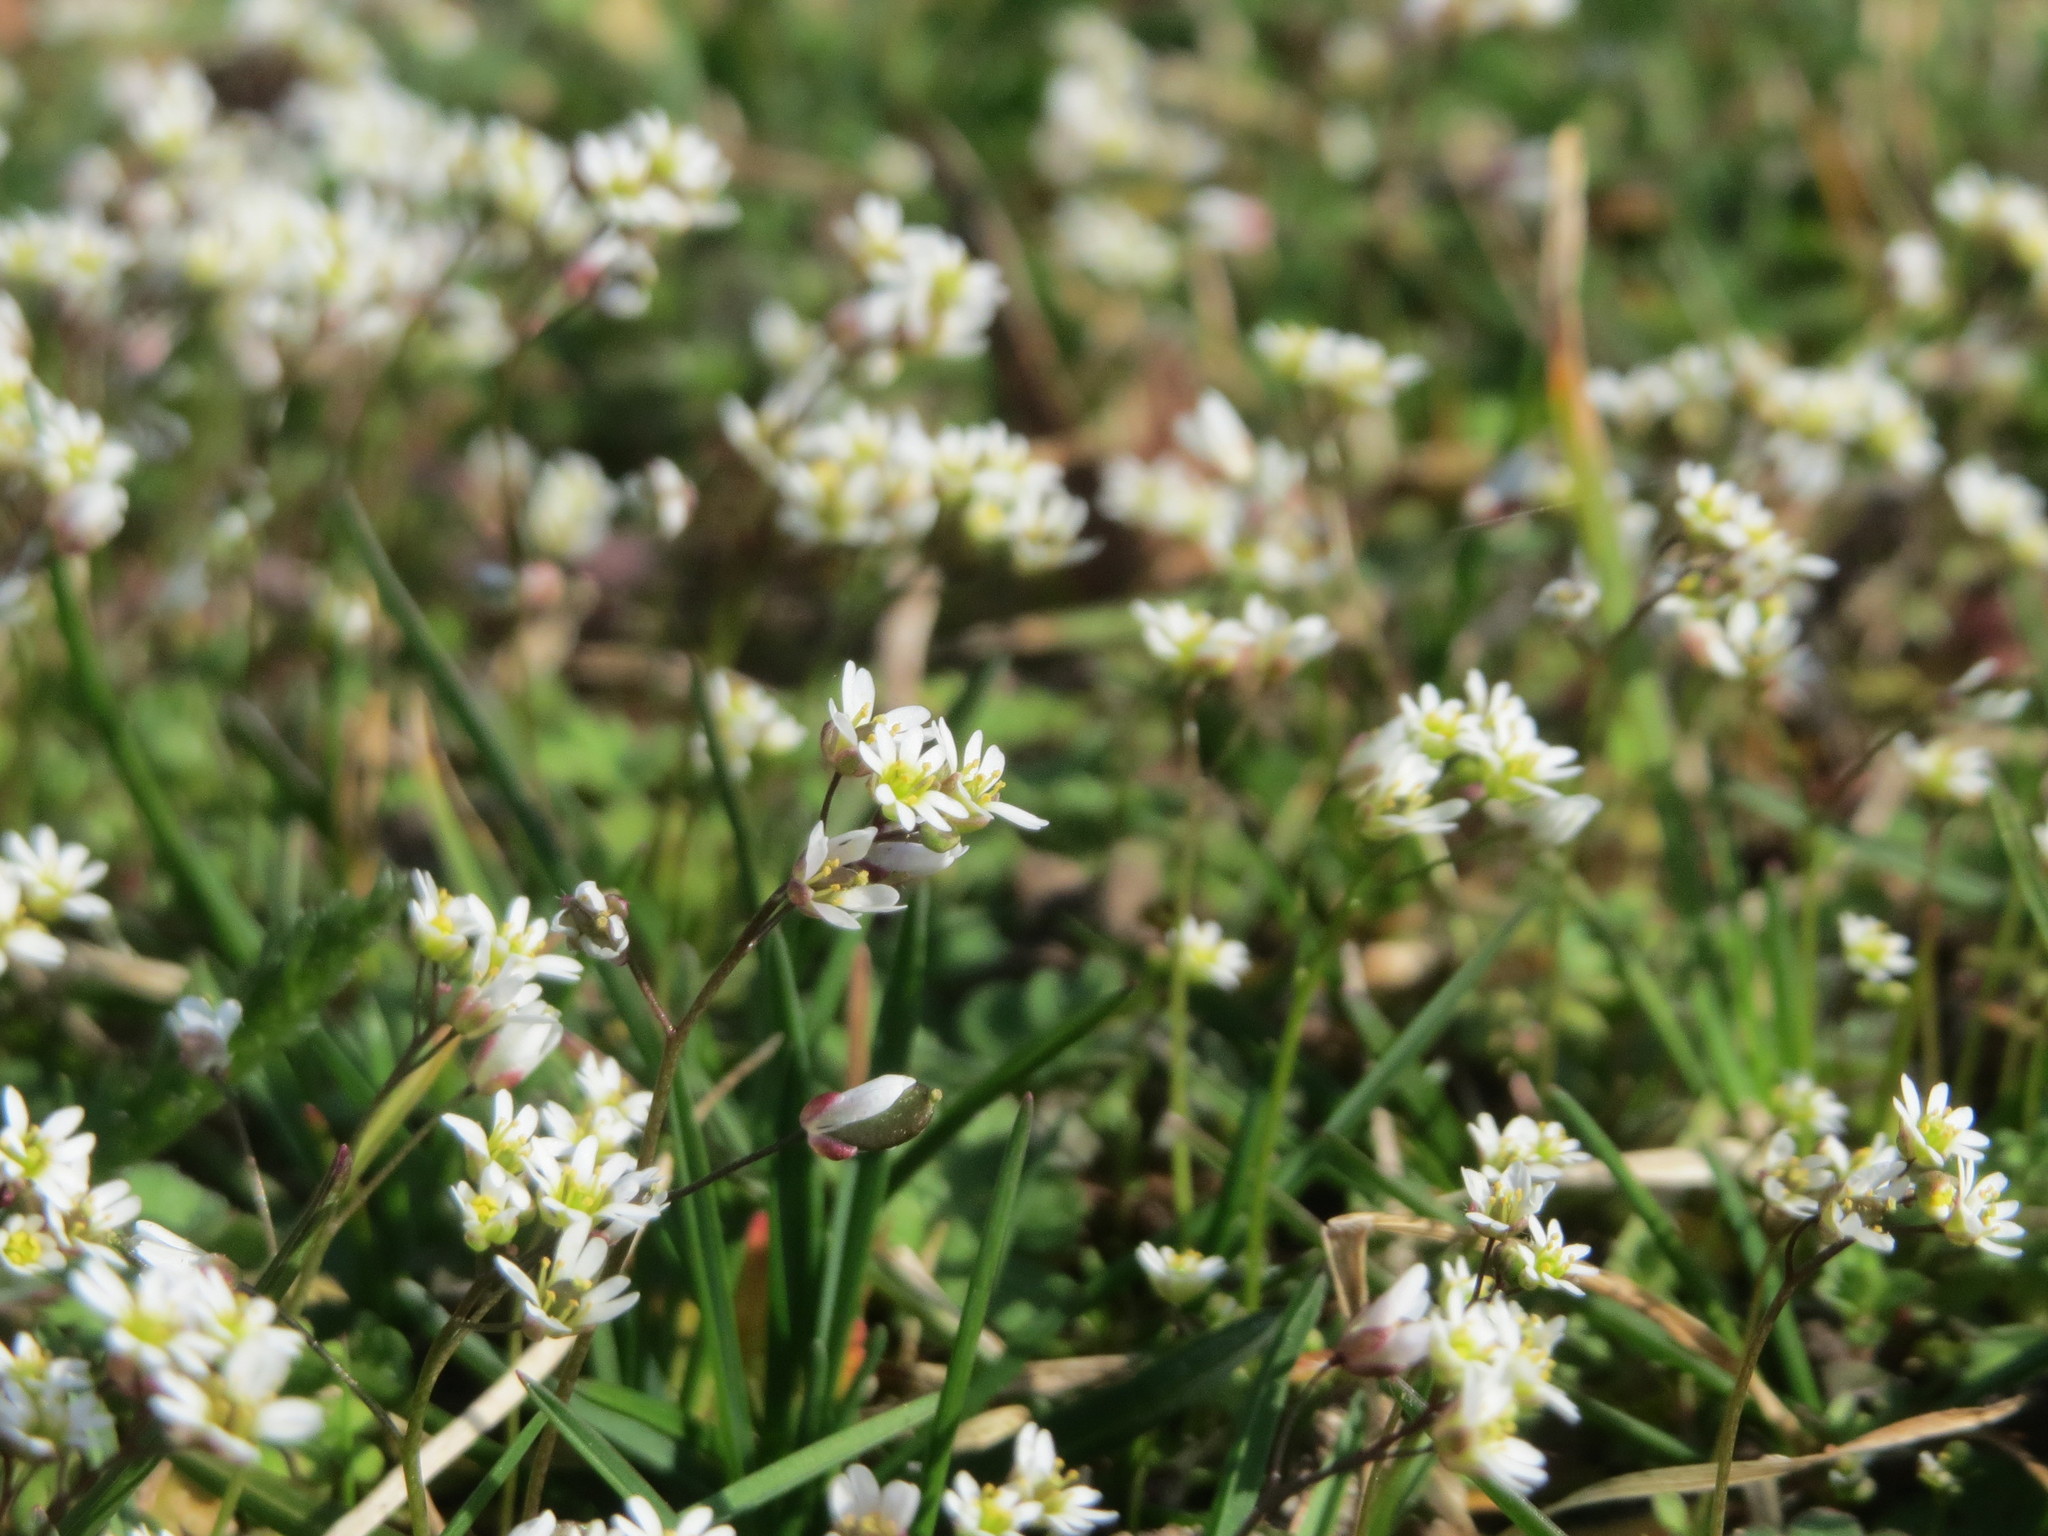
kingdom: Plantae
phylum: Tracheophyta
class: Magnoliopsida
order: Brassicales
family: Brassicaceae
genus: Draba
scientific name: Draba verna
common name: Spring draba
